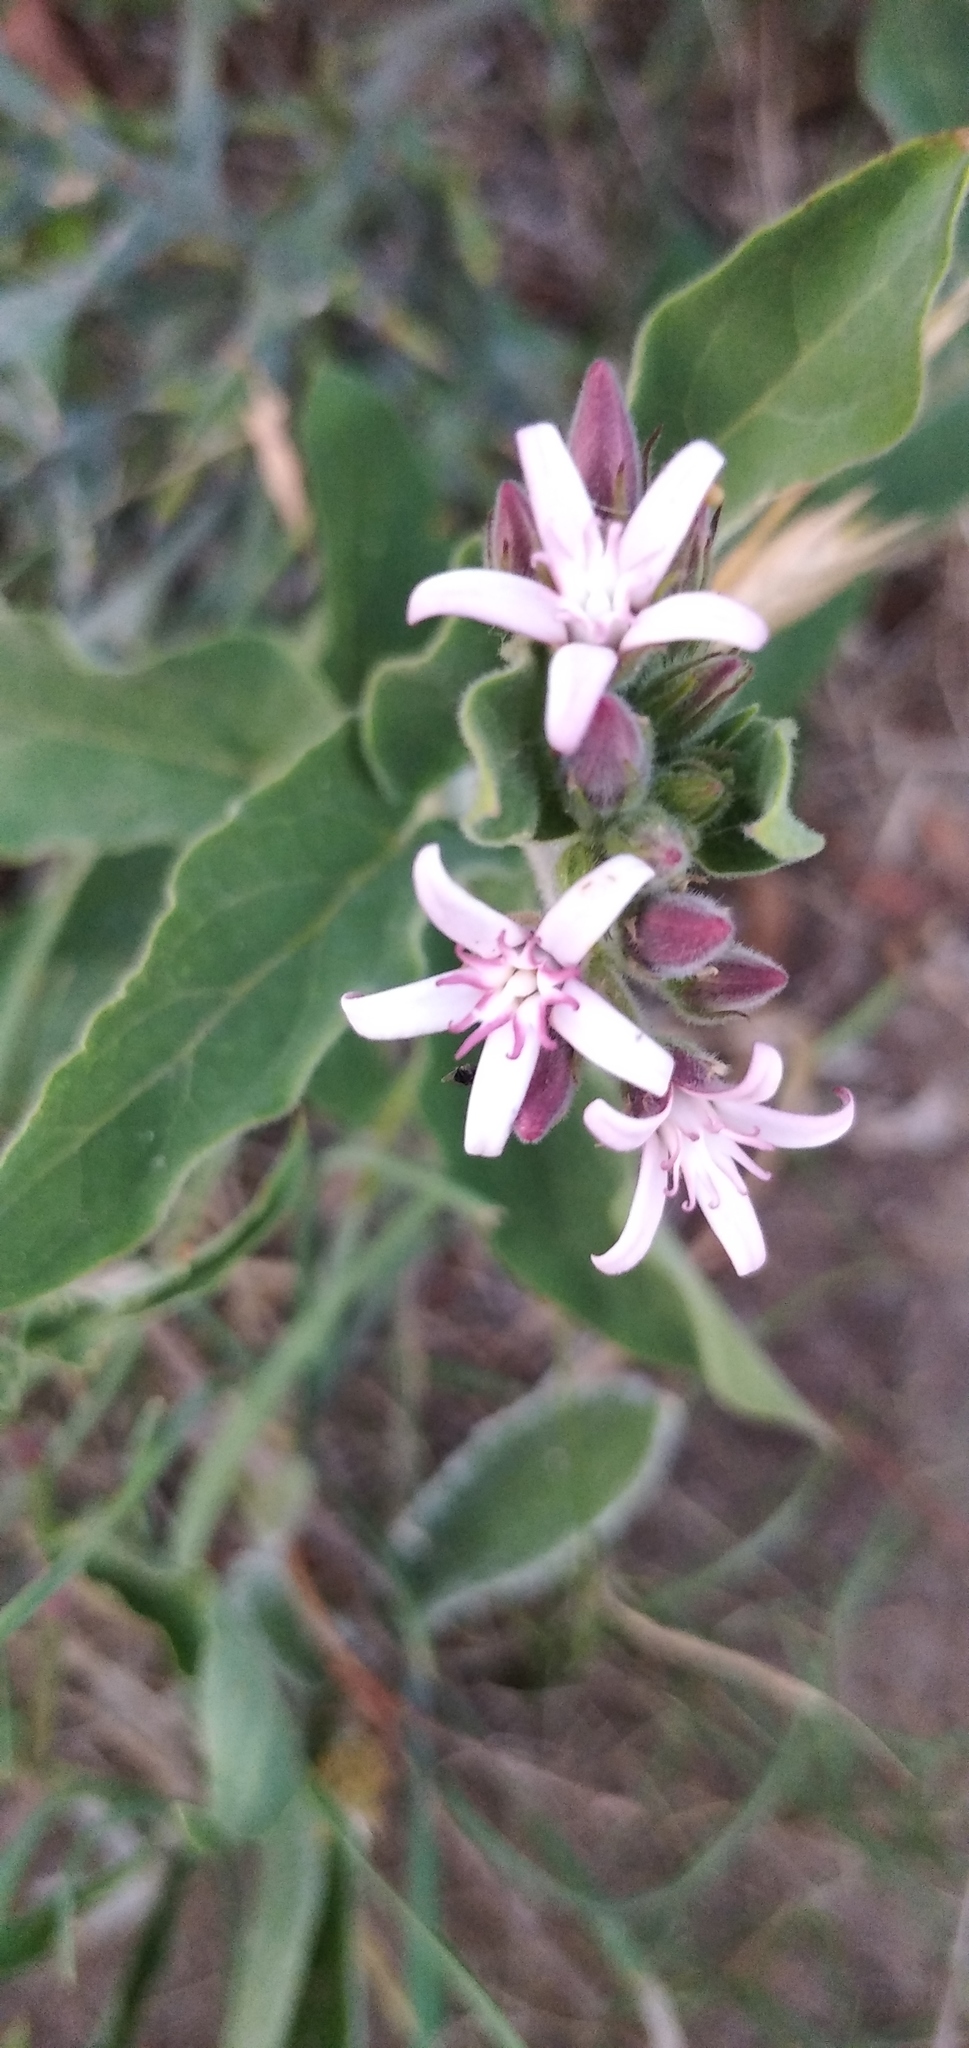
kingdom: Plantae
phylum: Tracheophyta
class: Magnoliopsida
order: Gentianales
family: Apocynaceae
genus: Oxypetalum
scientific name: Oxypetalum solanoides
